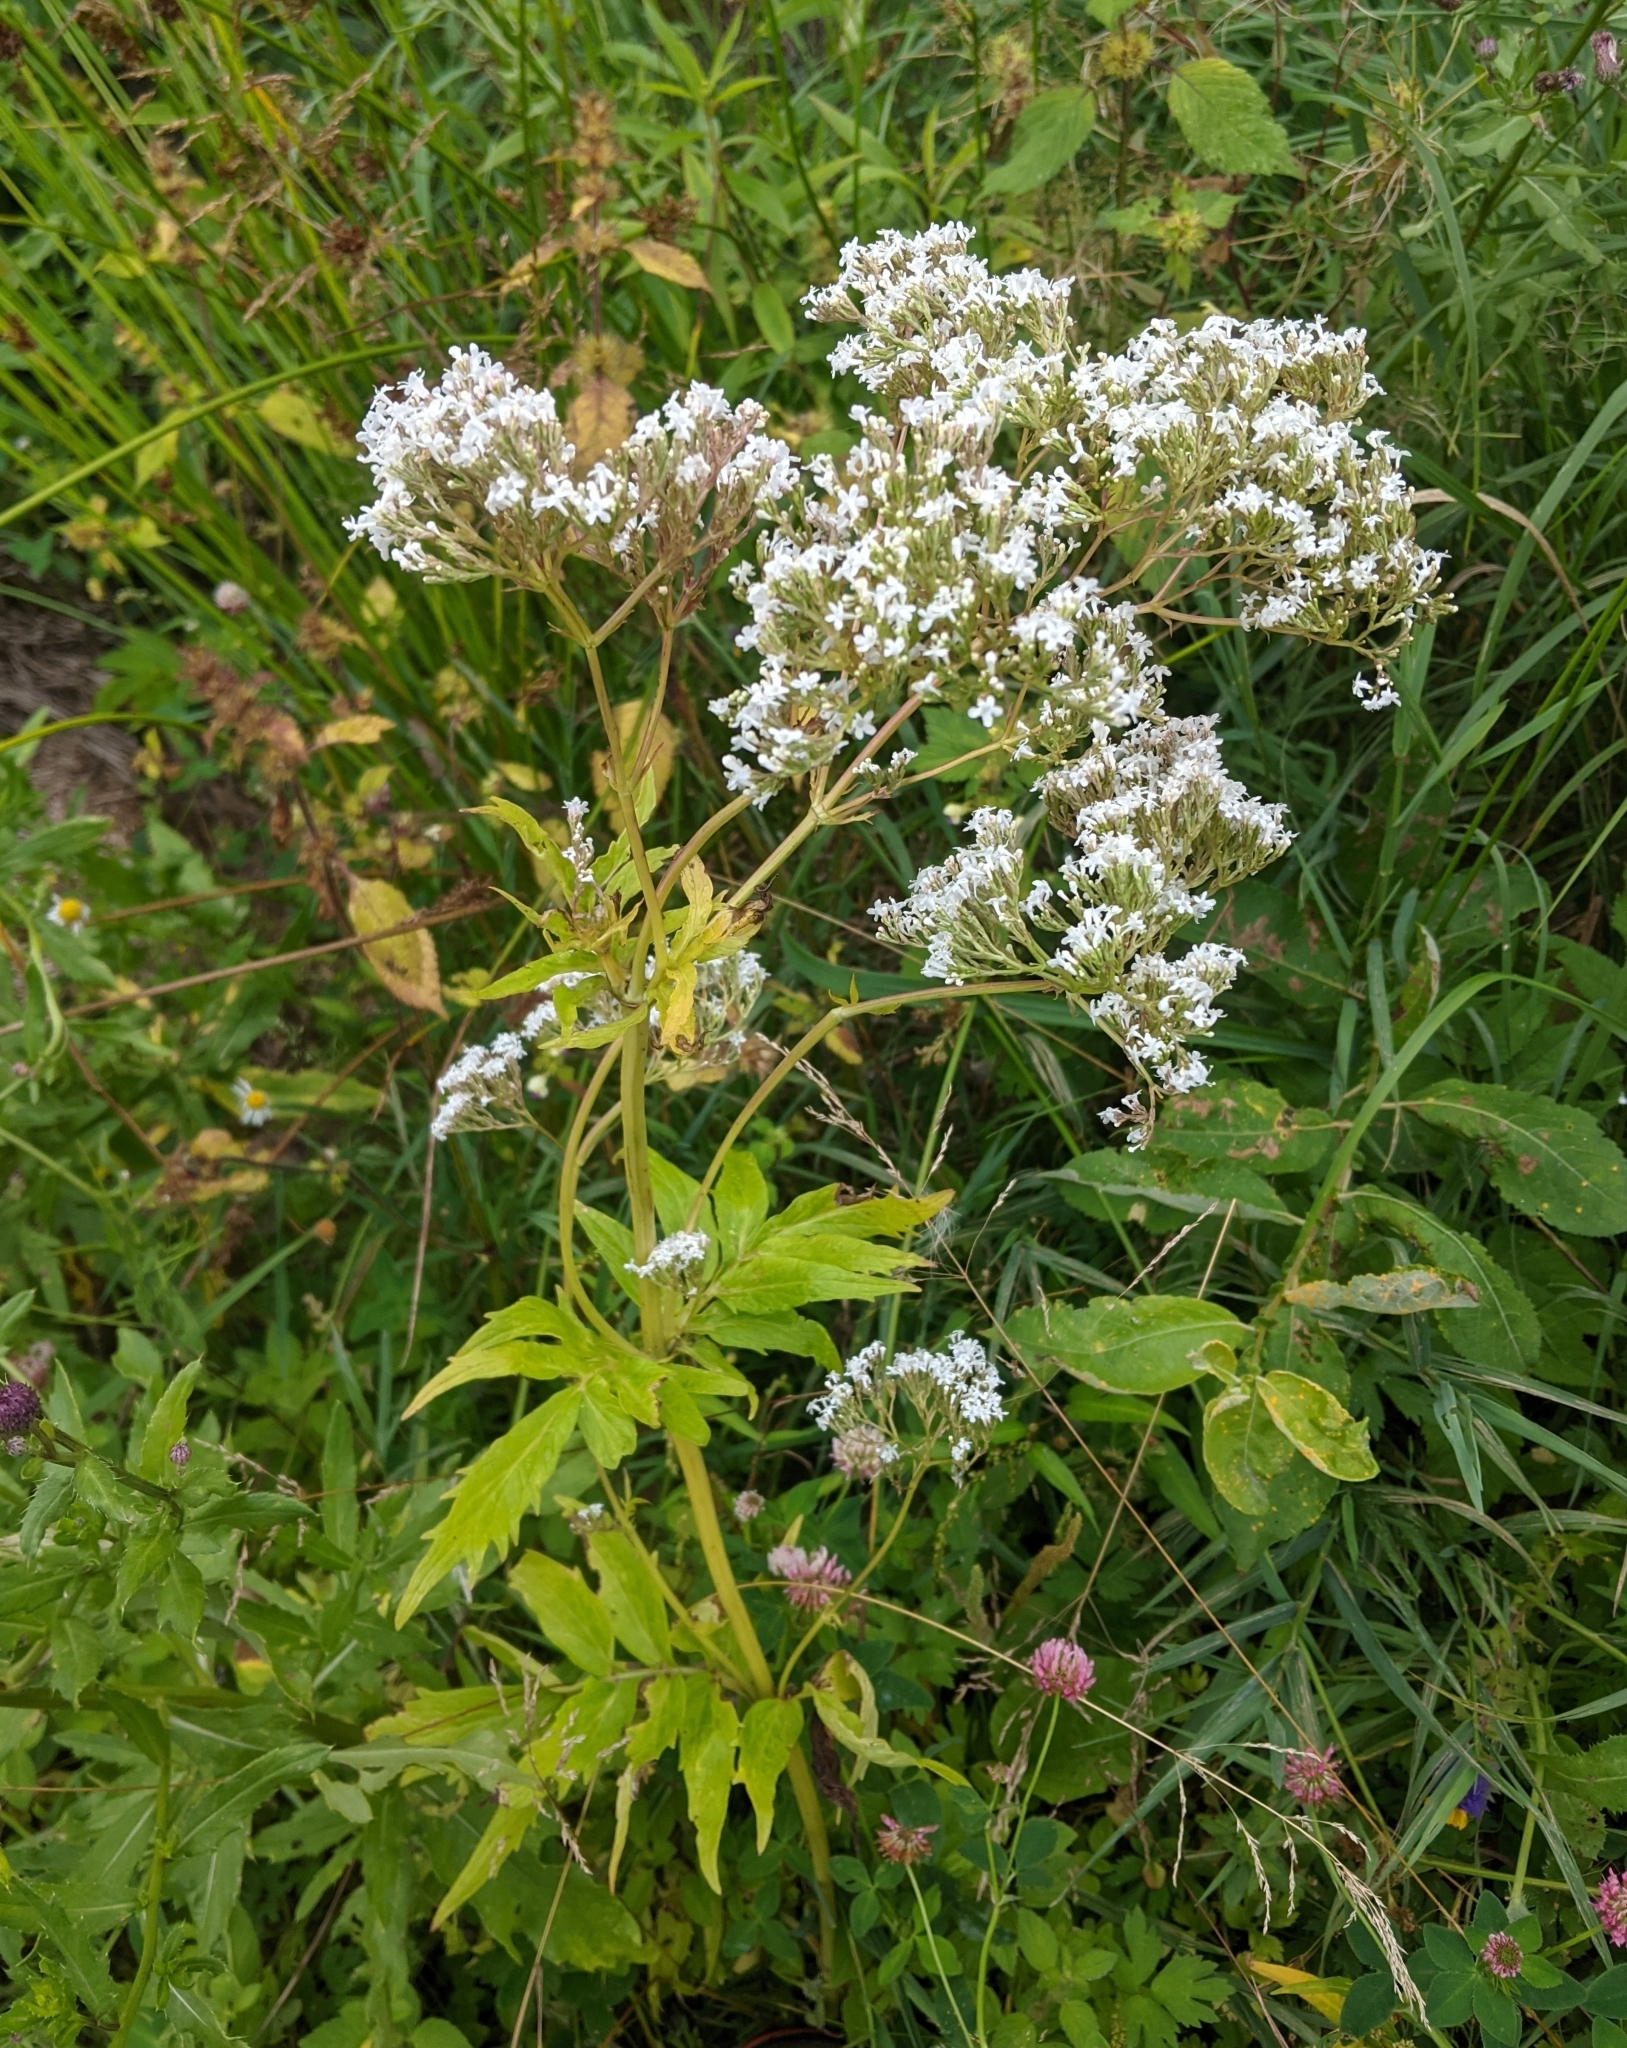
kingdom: Plantae
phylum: Tracheophyta
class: Magnoliopsida
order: Dipsacales
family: Caprifoliaceae
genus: Valeriana
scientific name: Valeriana officinalis
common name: Common valerian
